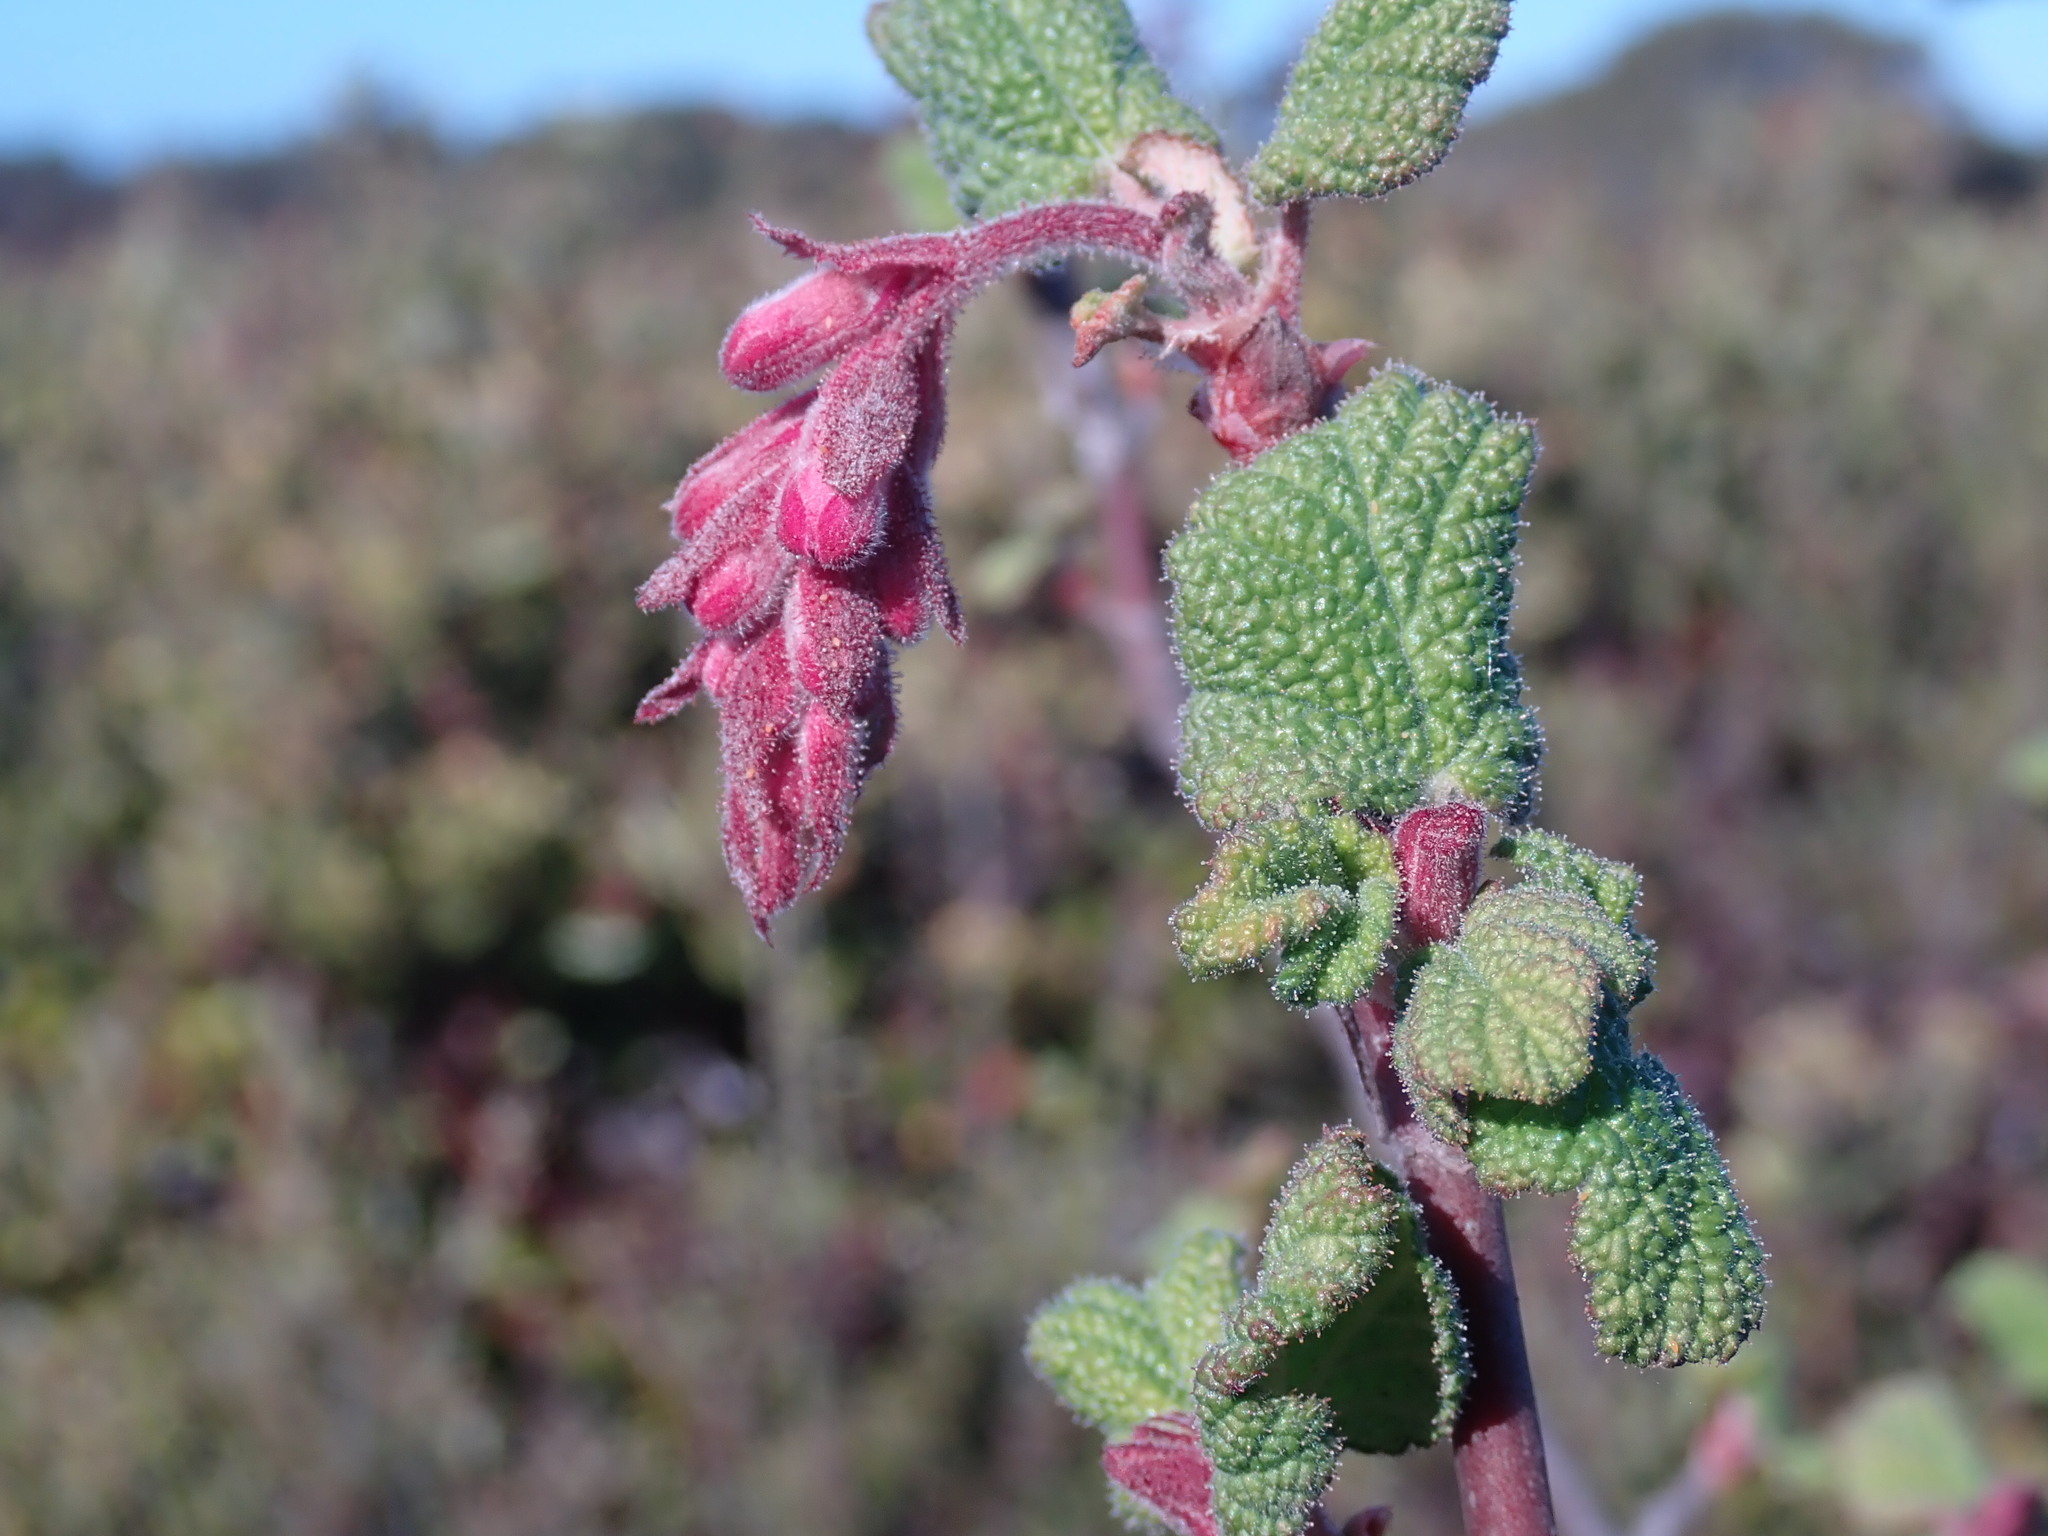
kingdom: Plantae
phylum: Tracheophyta
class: Magnoliopsida
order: Saxifragales
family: Grossulariaceae
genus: Ribes
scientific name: Ribes malvaceum
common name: Chaparral currant
